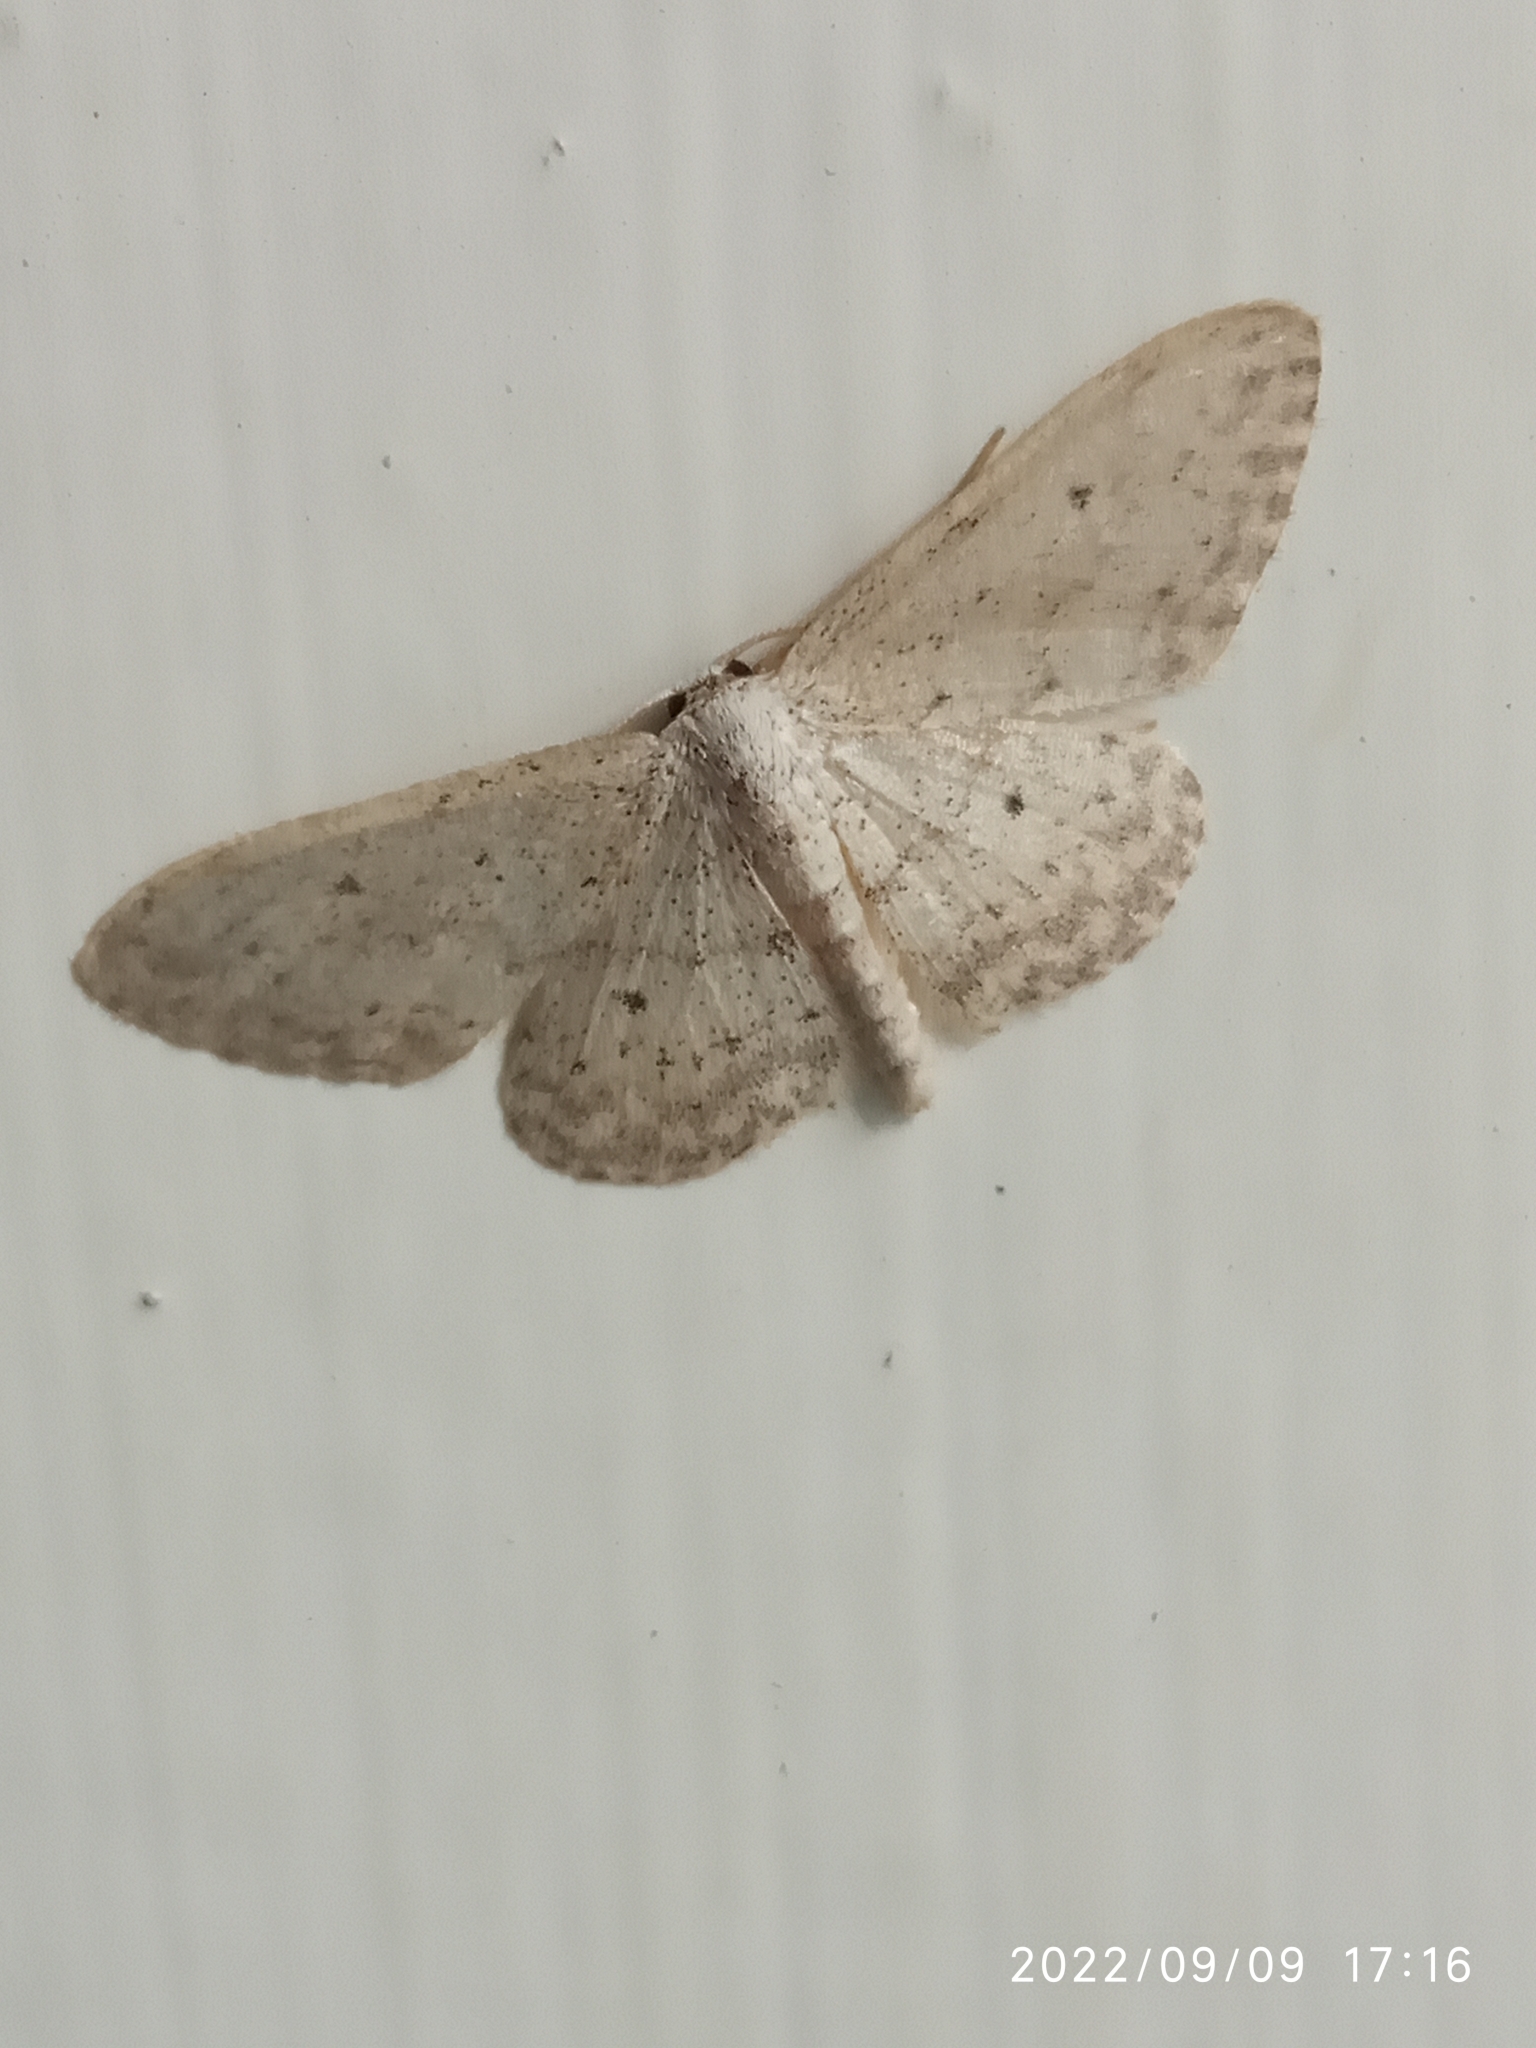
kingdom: Animalia
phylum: Arthropoda
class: Insecta
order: Lepidoptera
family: Geometridae
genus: Idaea
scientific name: Idaea seriata
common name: Small dusty wave
